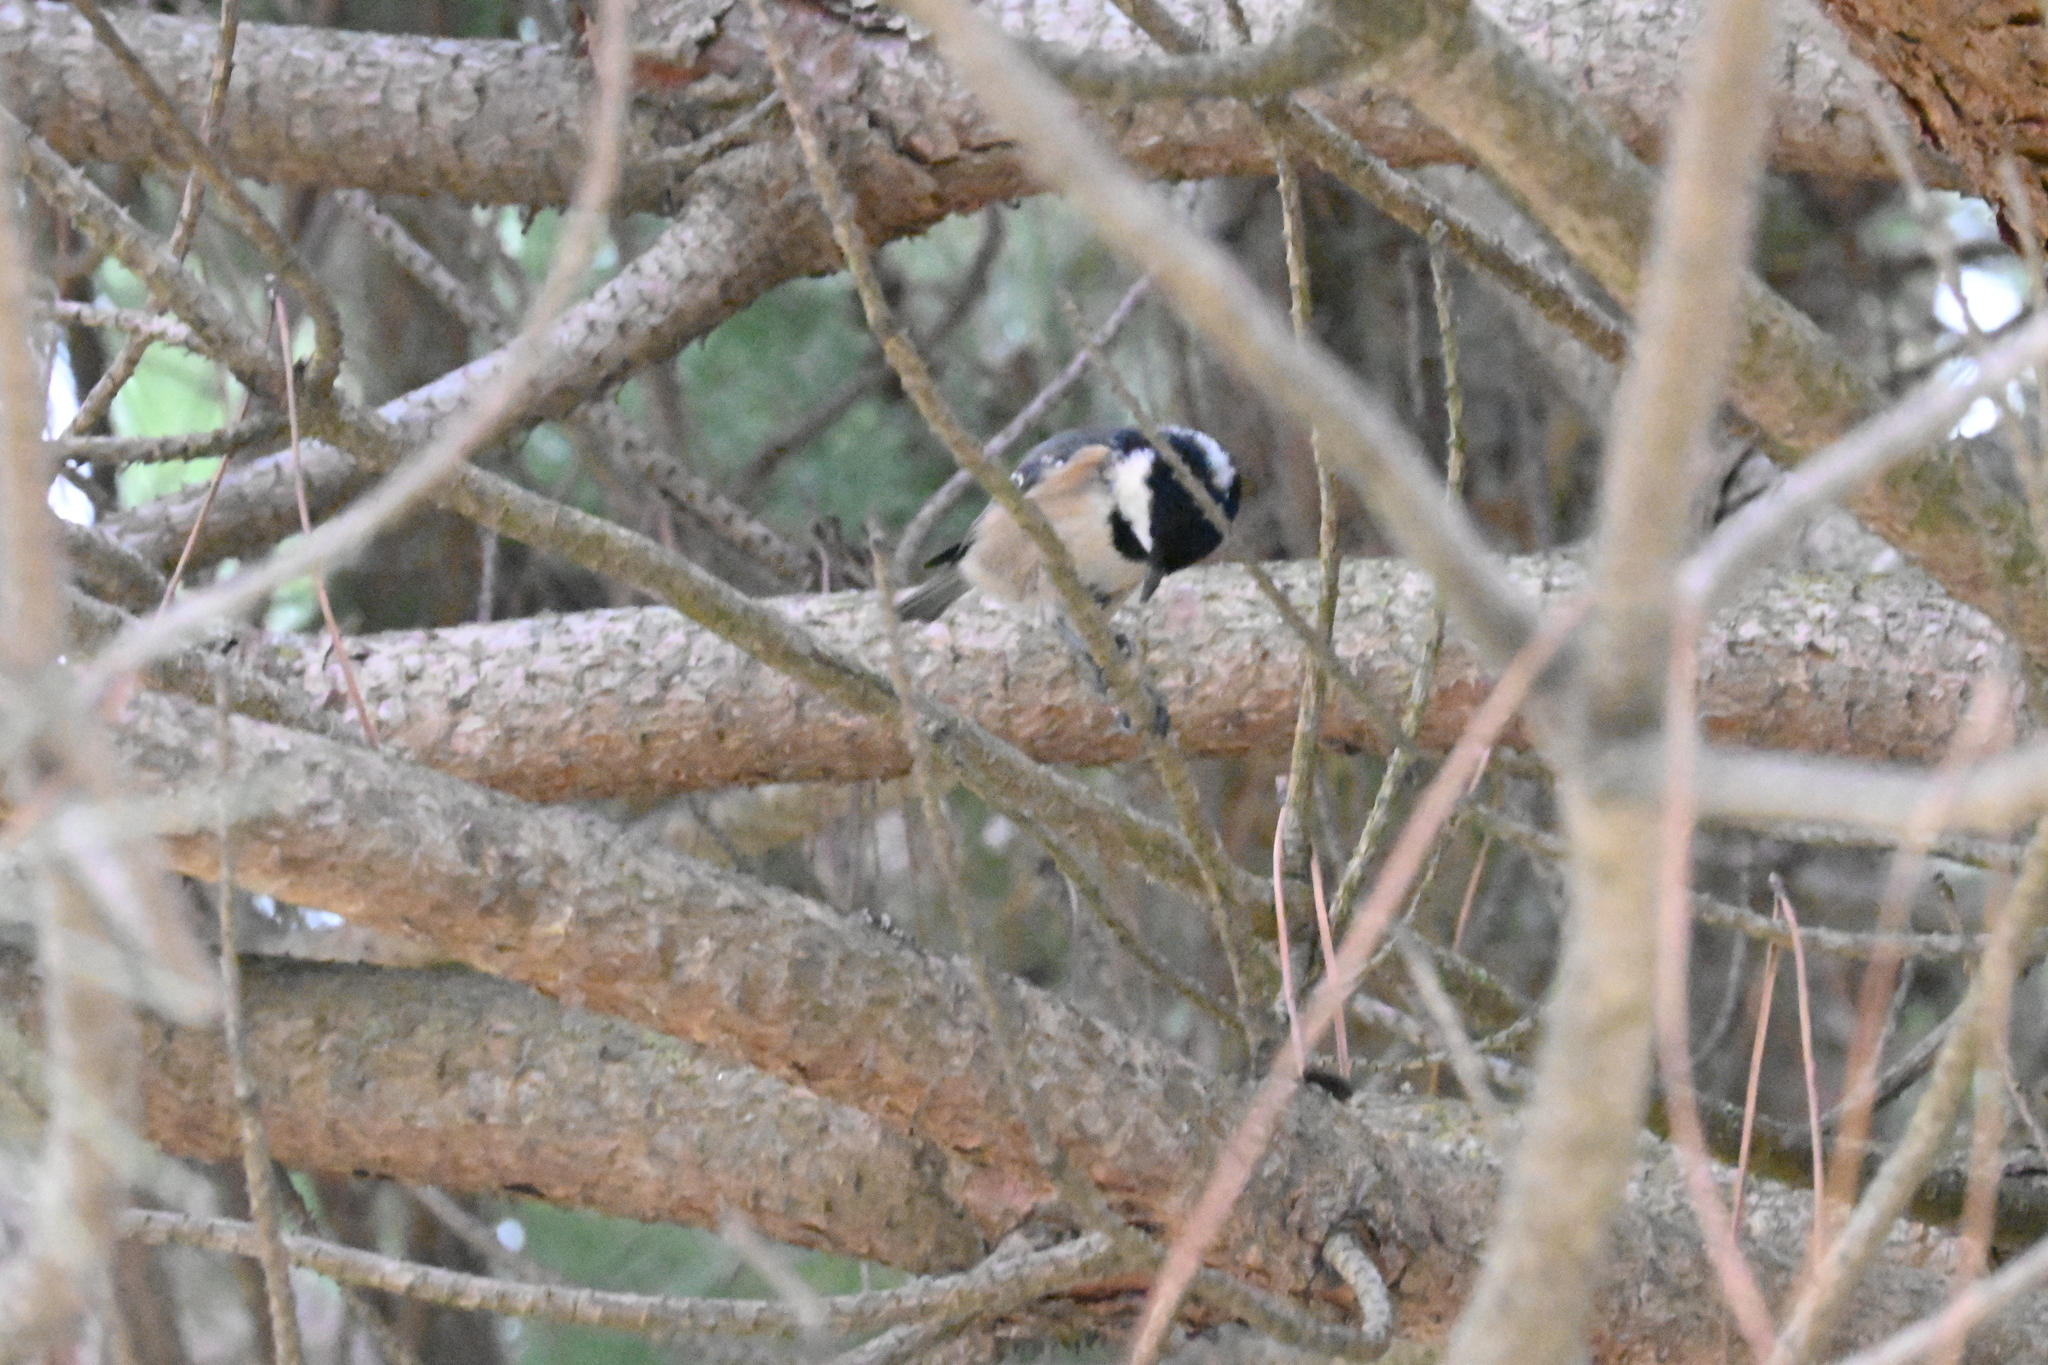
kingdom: Animalia
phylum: Chordata
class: Aves
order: Passeriformes
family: Paridae
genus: Periparus
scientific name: Periparus ater
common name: Coal tit
